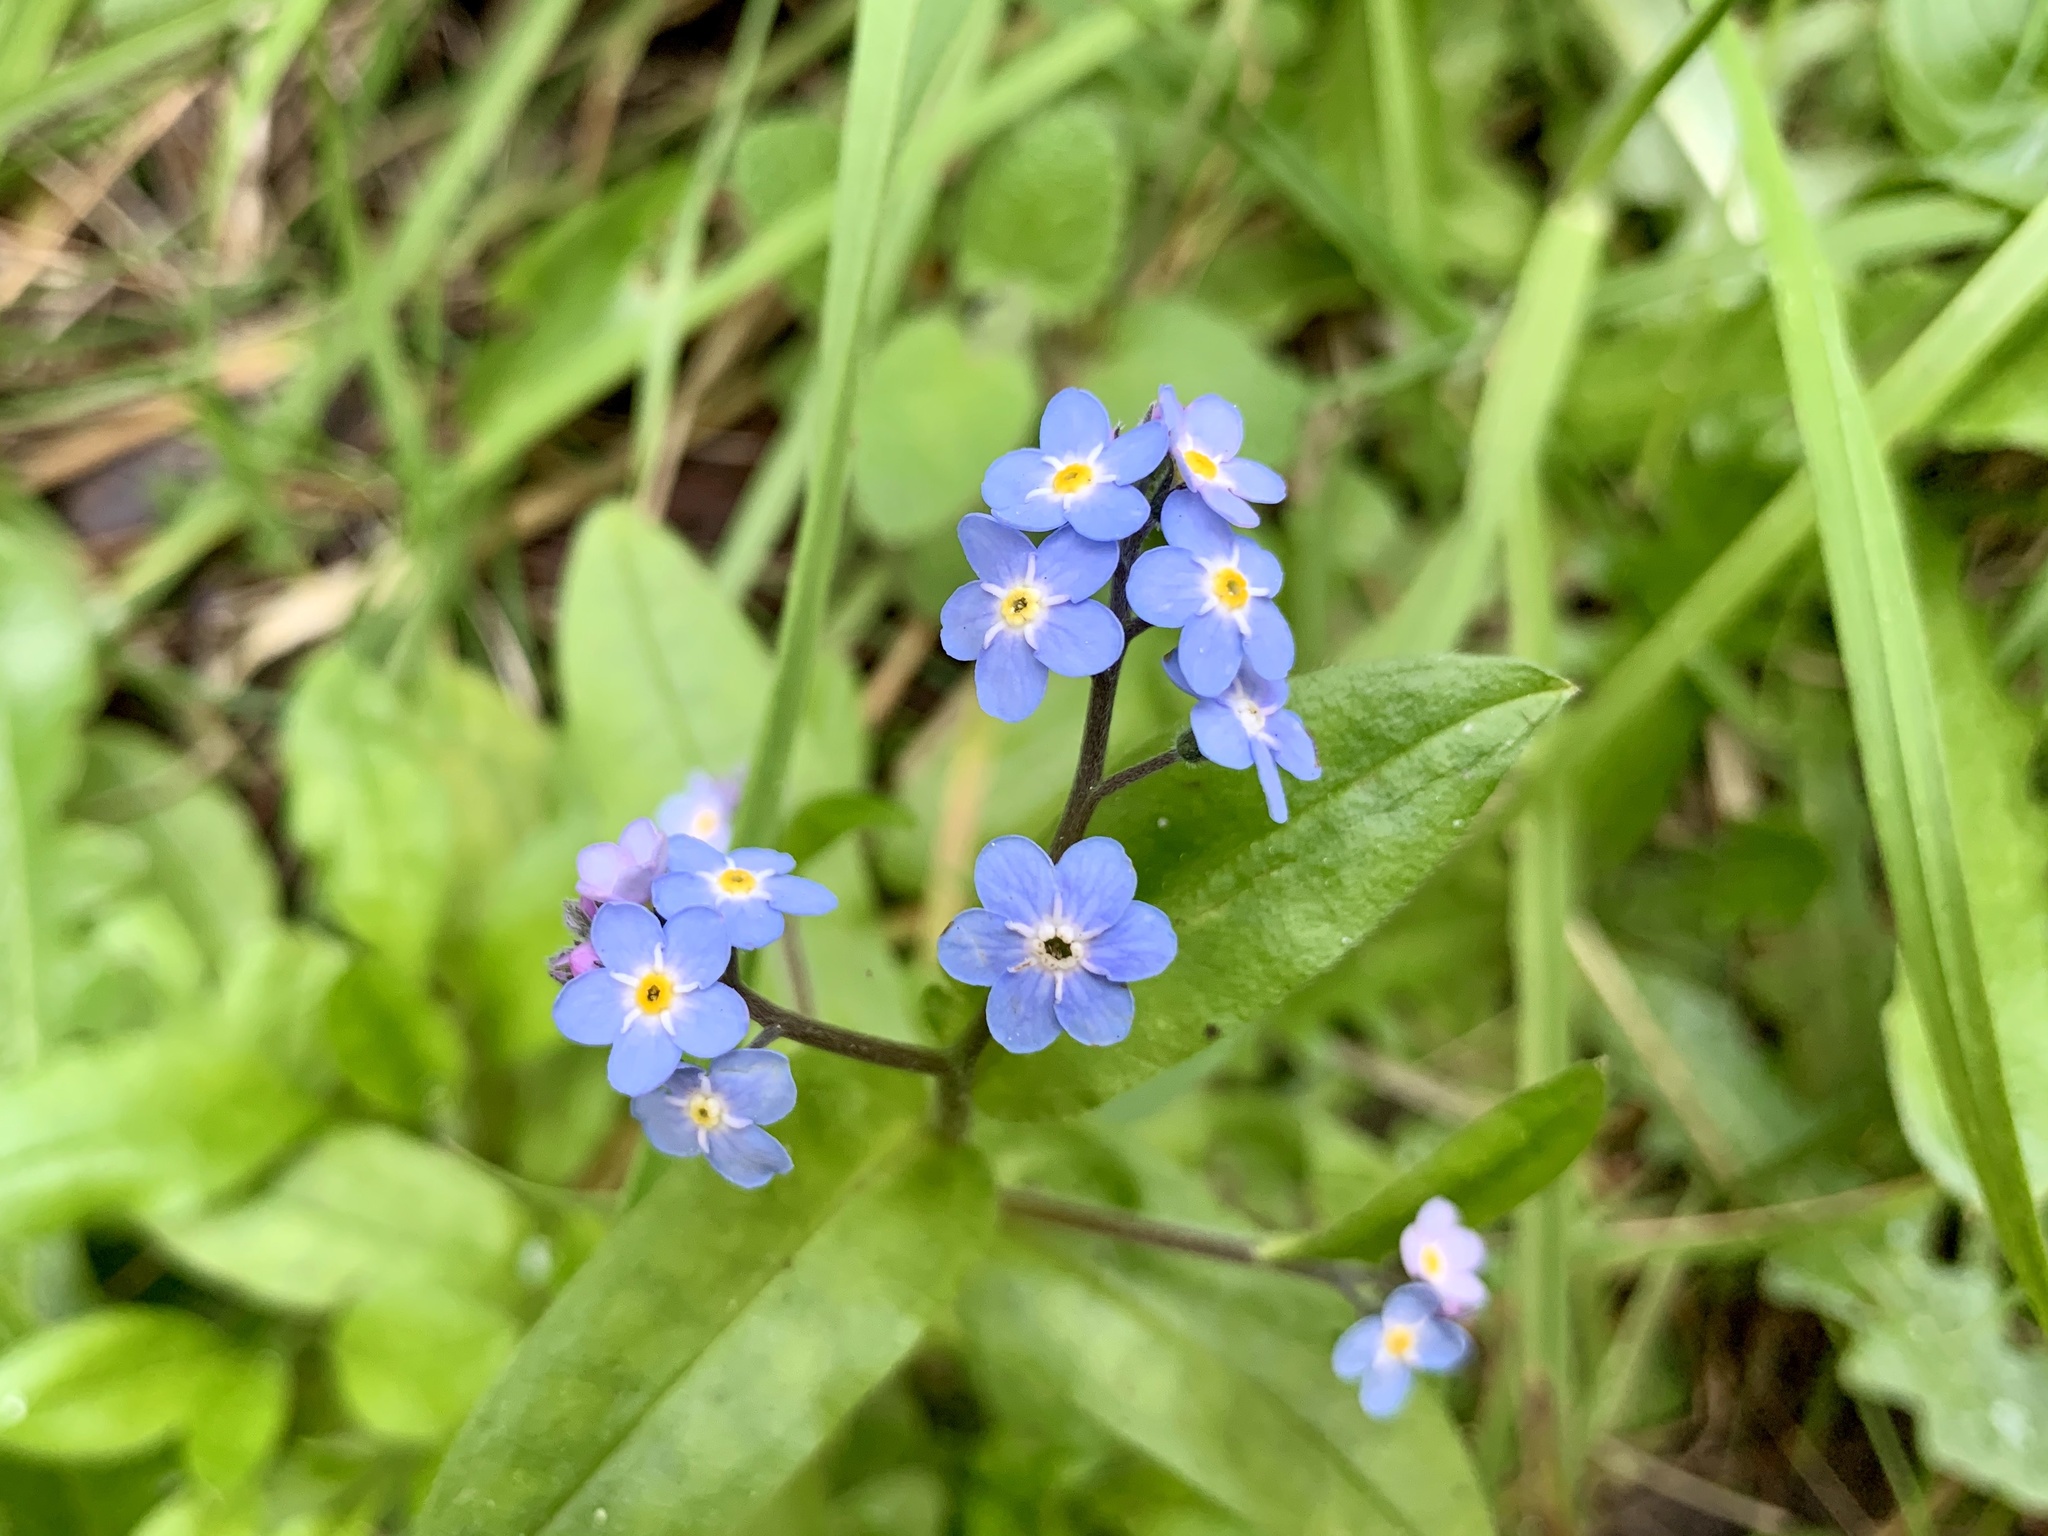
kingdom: Plantae
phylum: Tracheophyta
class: Magnoliopsida
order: Boraginales
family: Boraginaceae
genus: Myosotis
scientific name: Myosotis latifolia
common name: Broadleaf forget-me-not
